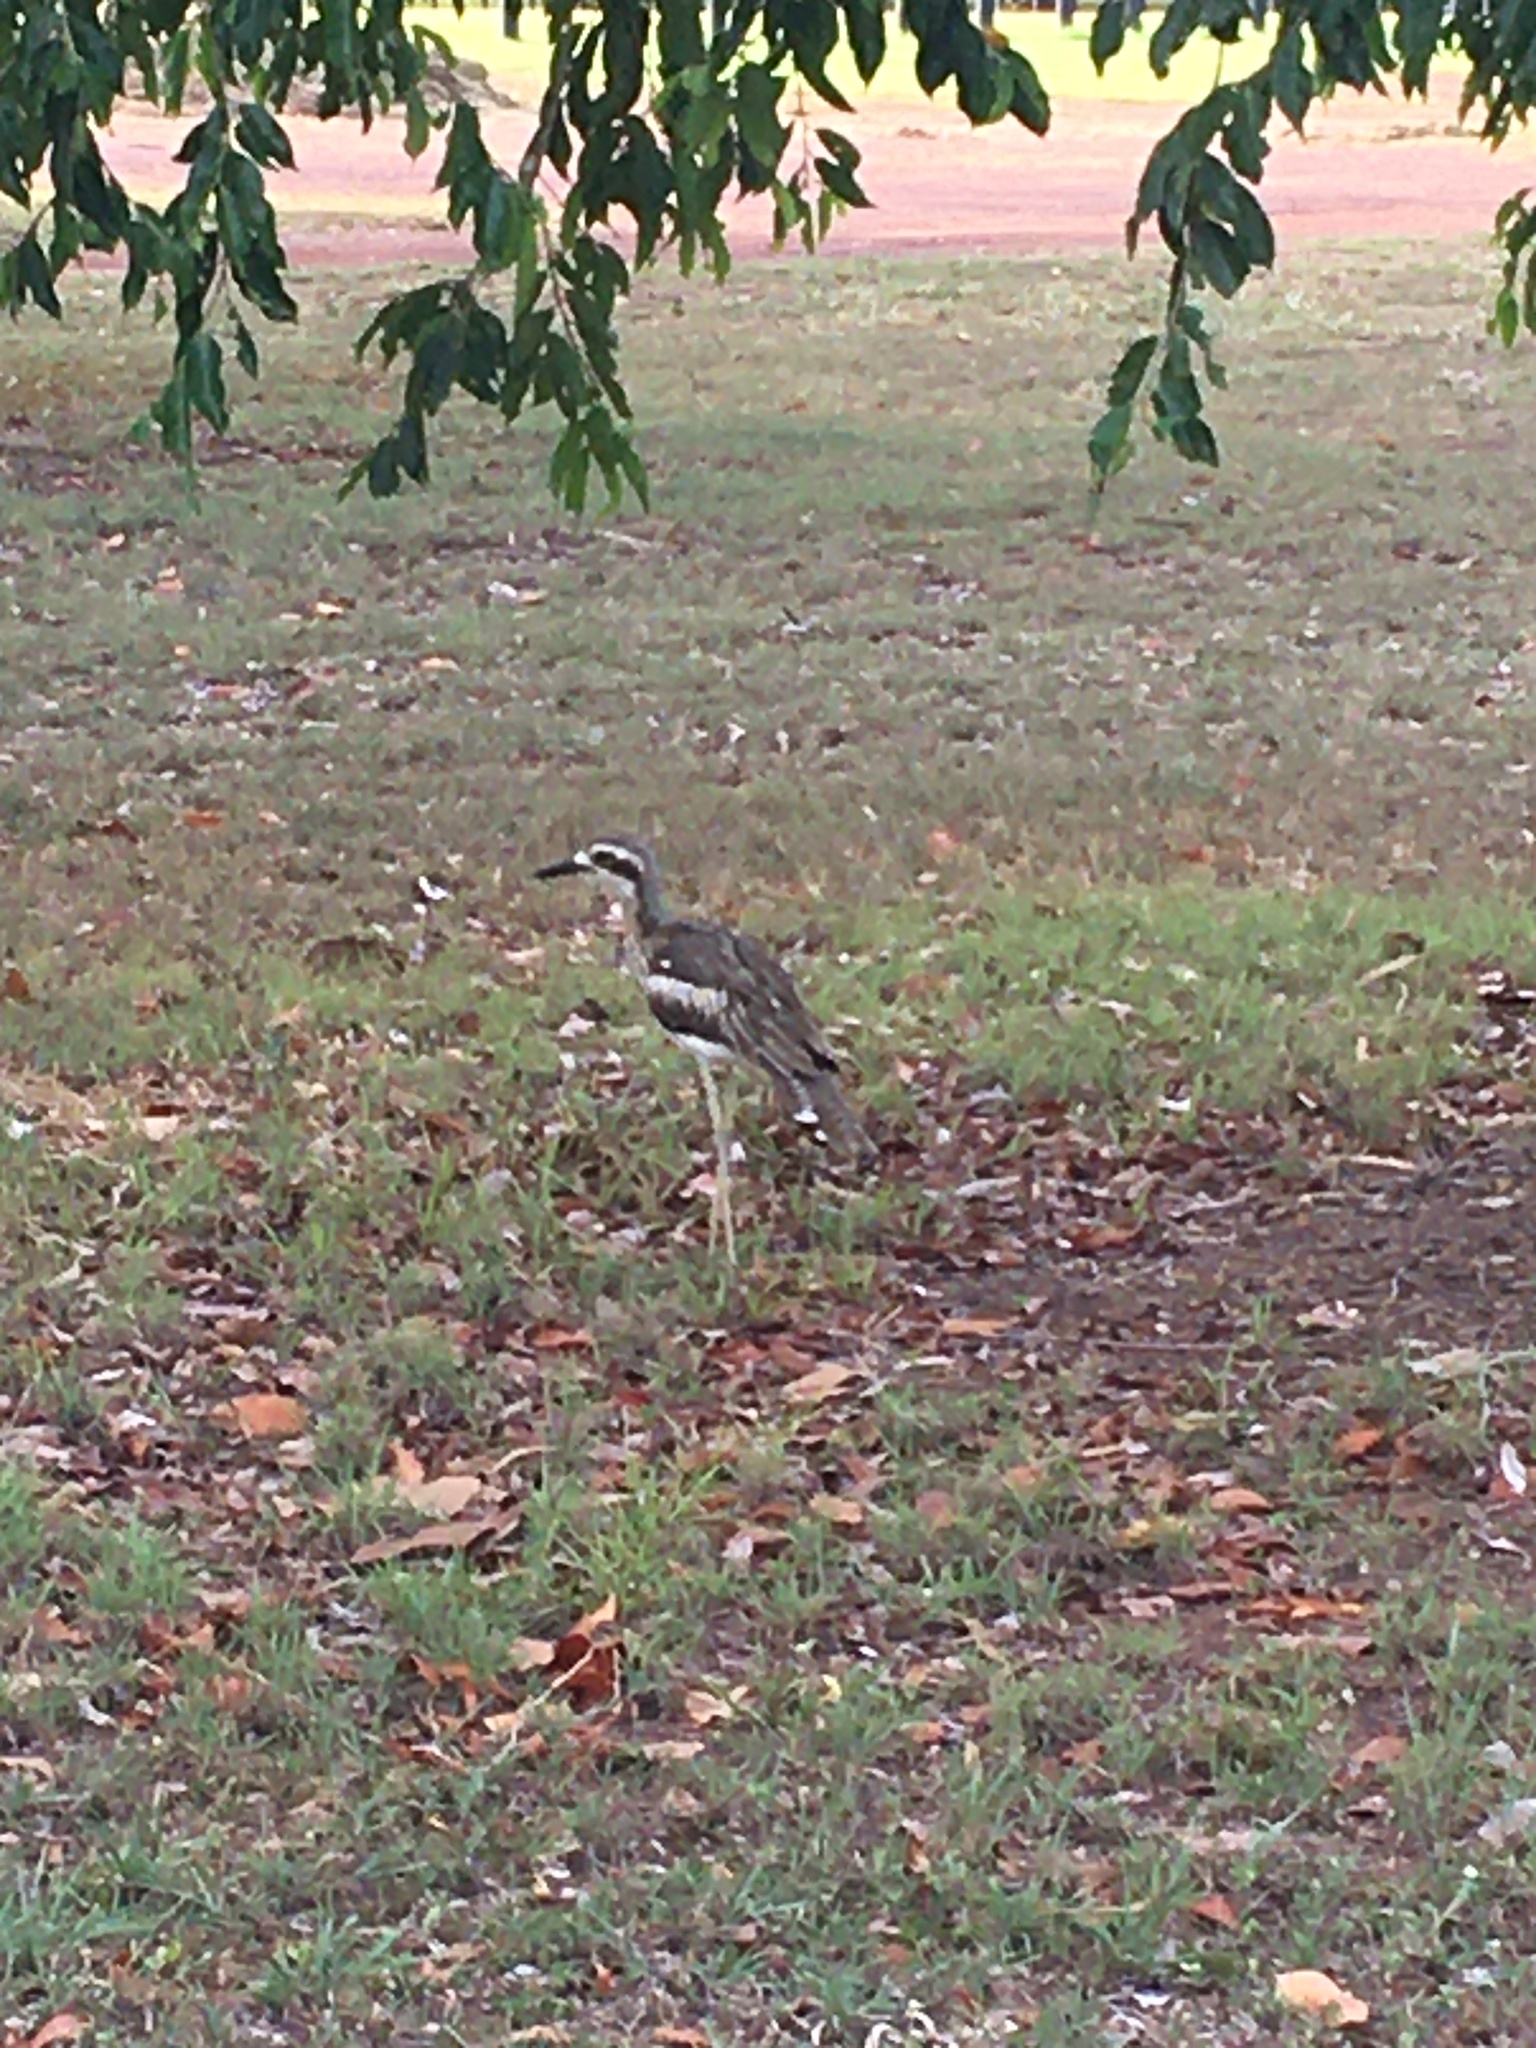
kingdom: Animalia
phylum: Chordata
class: Aves
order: Charadriiformes
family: Burhinidae
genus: Burhinus
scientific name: Burhinus grallarius
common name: Bush stone-curlew
